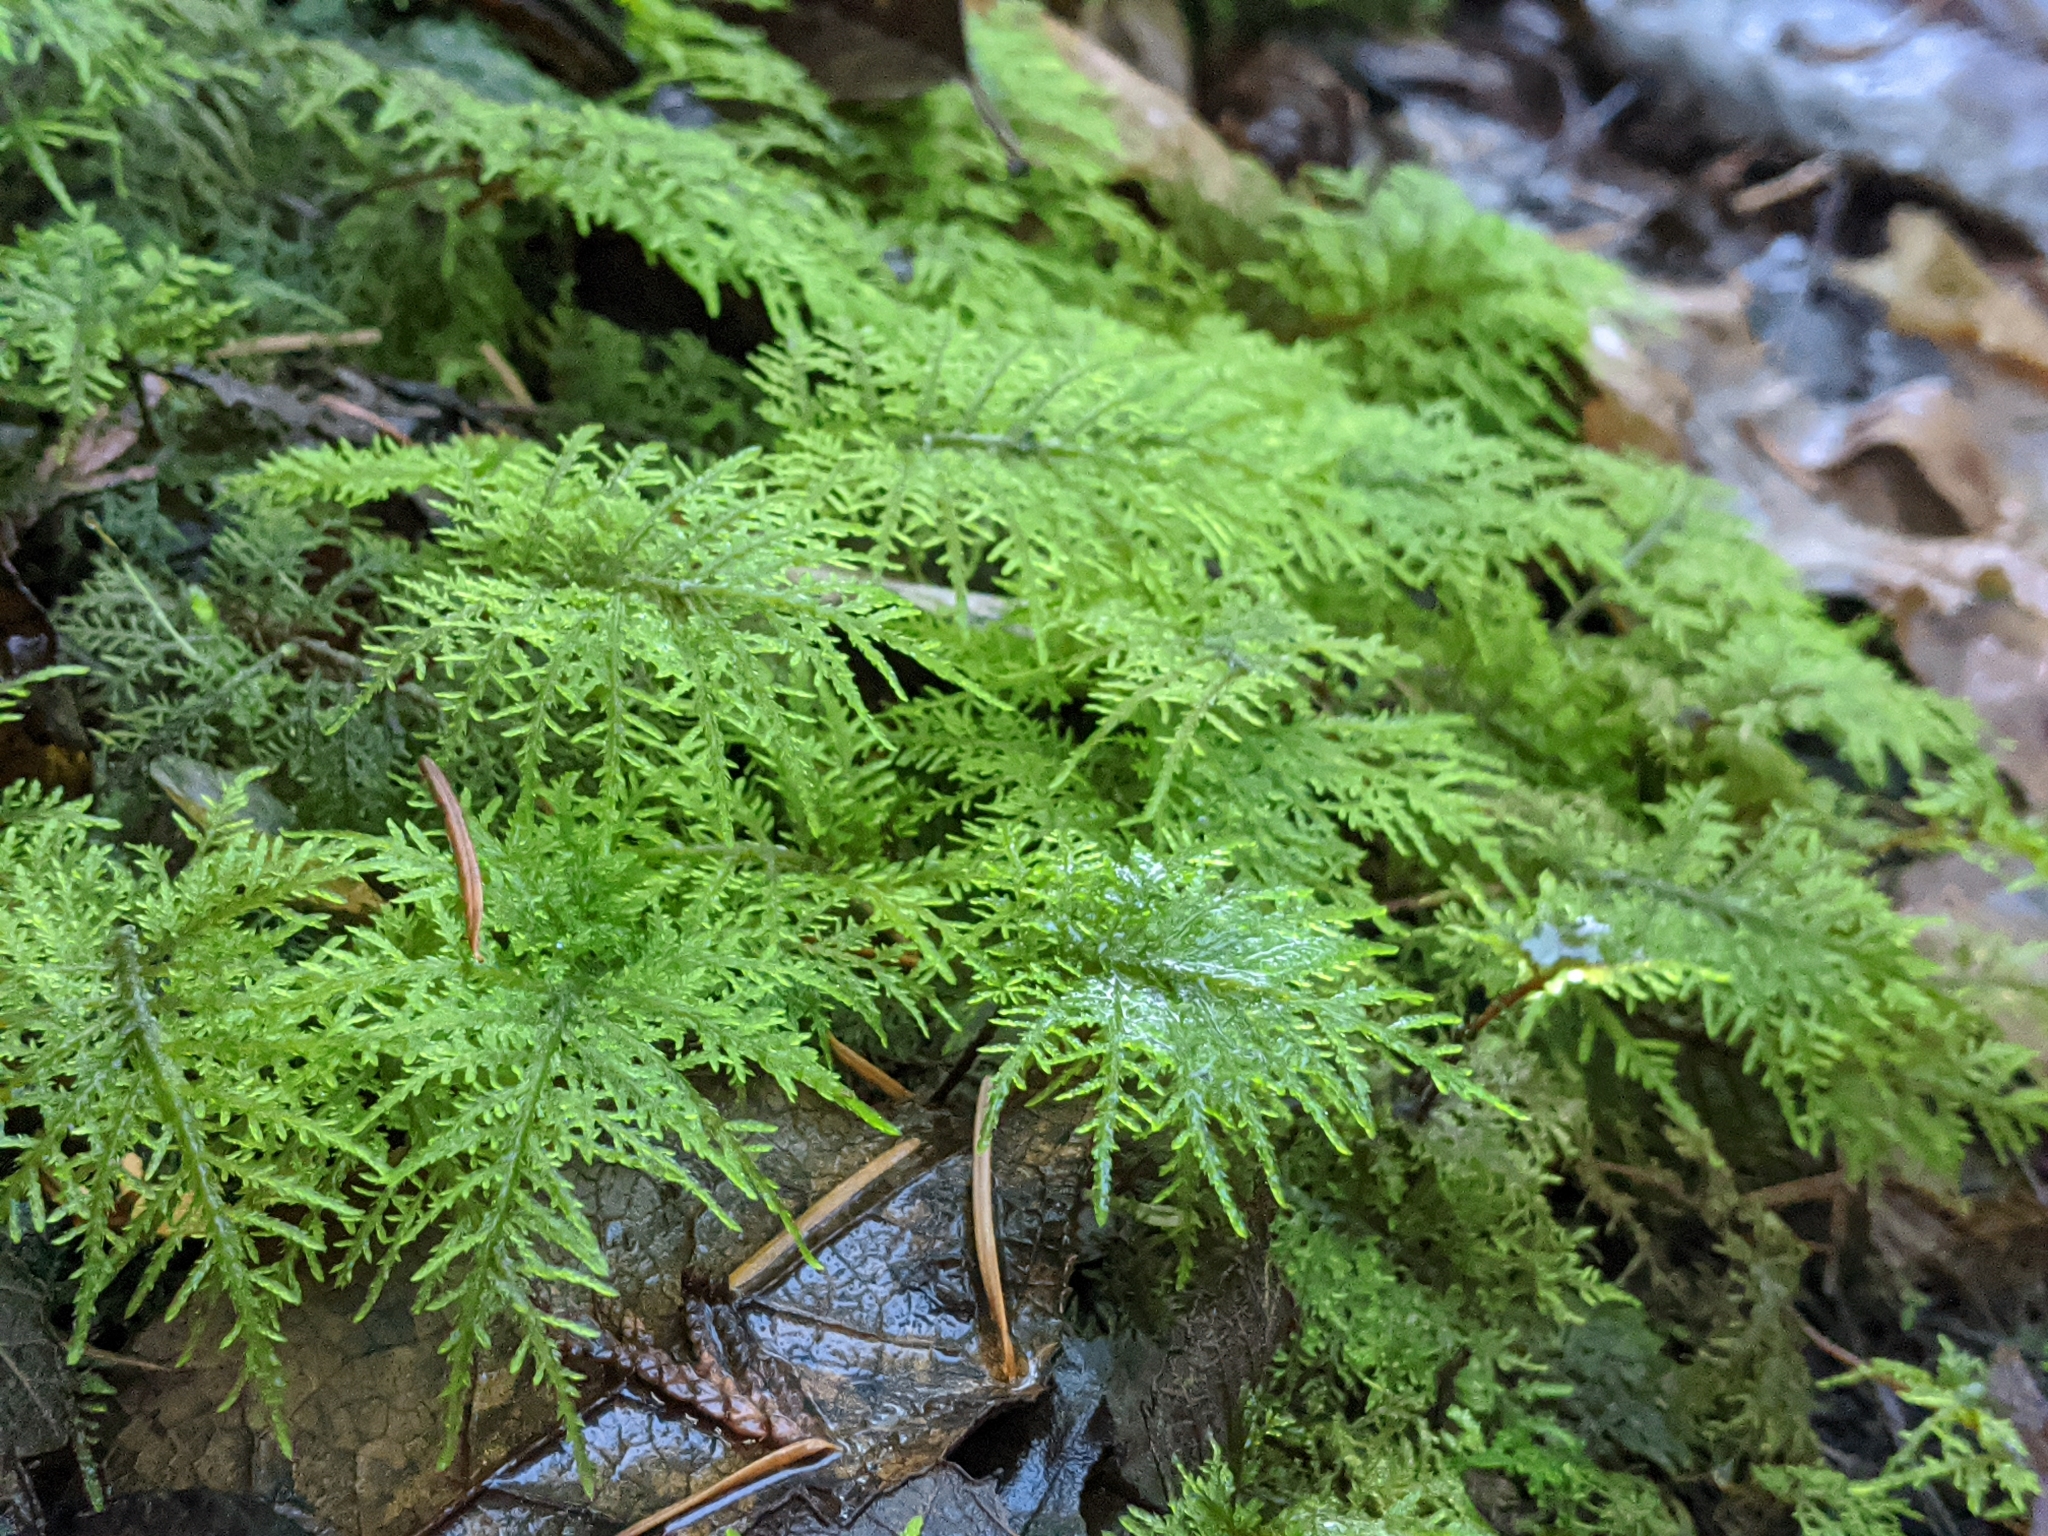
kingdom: Plantae
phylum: Bryophyta
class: Bryopsida
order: Hypnales
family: Hylocomiaceae
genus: Hylocomium
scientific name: Hylocomium splendens
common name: Stairstep moss
